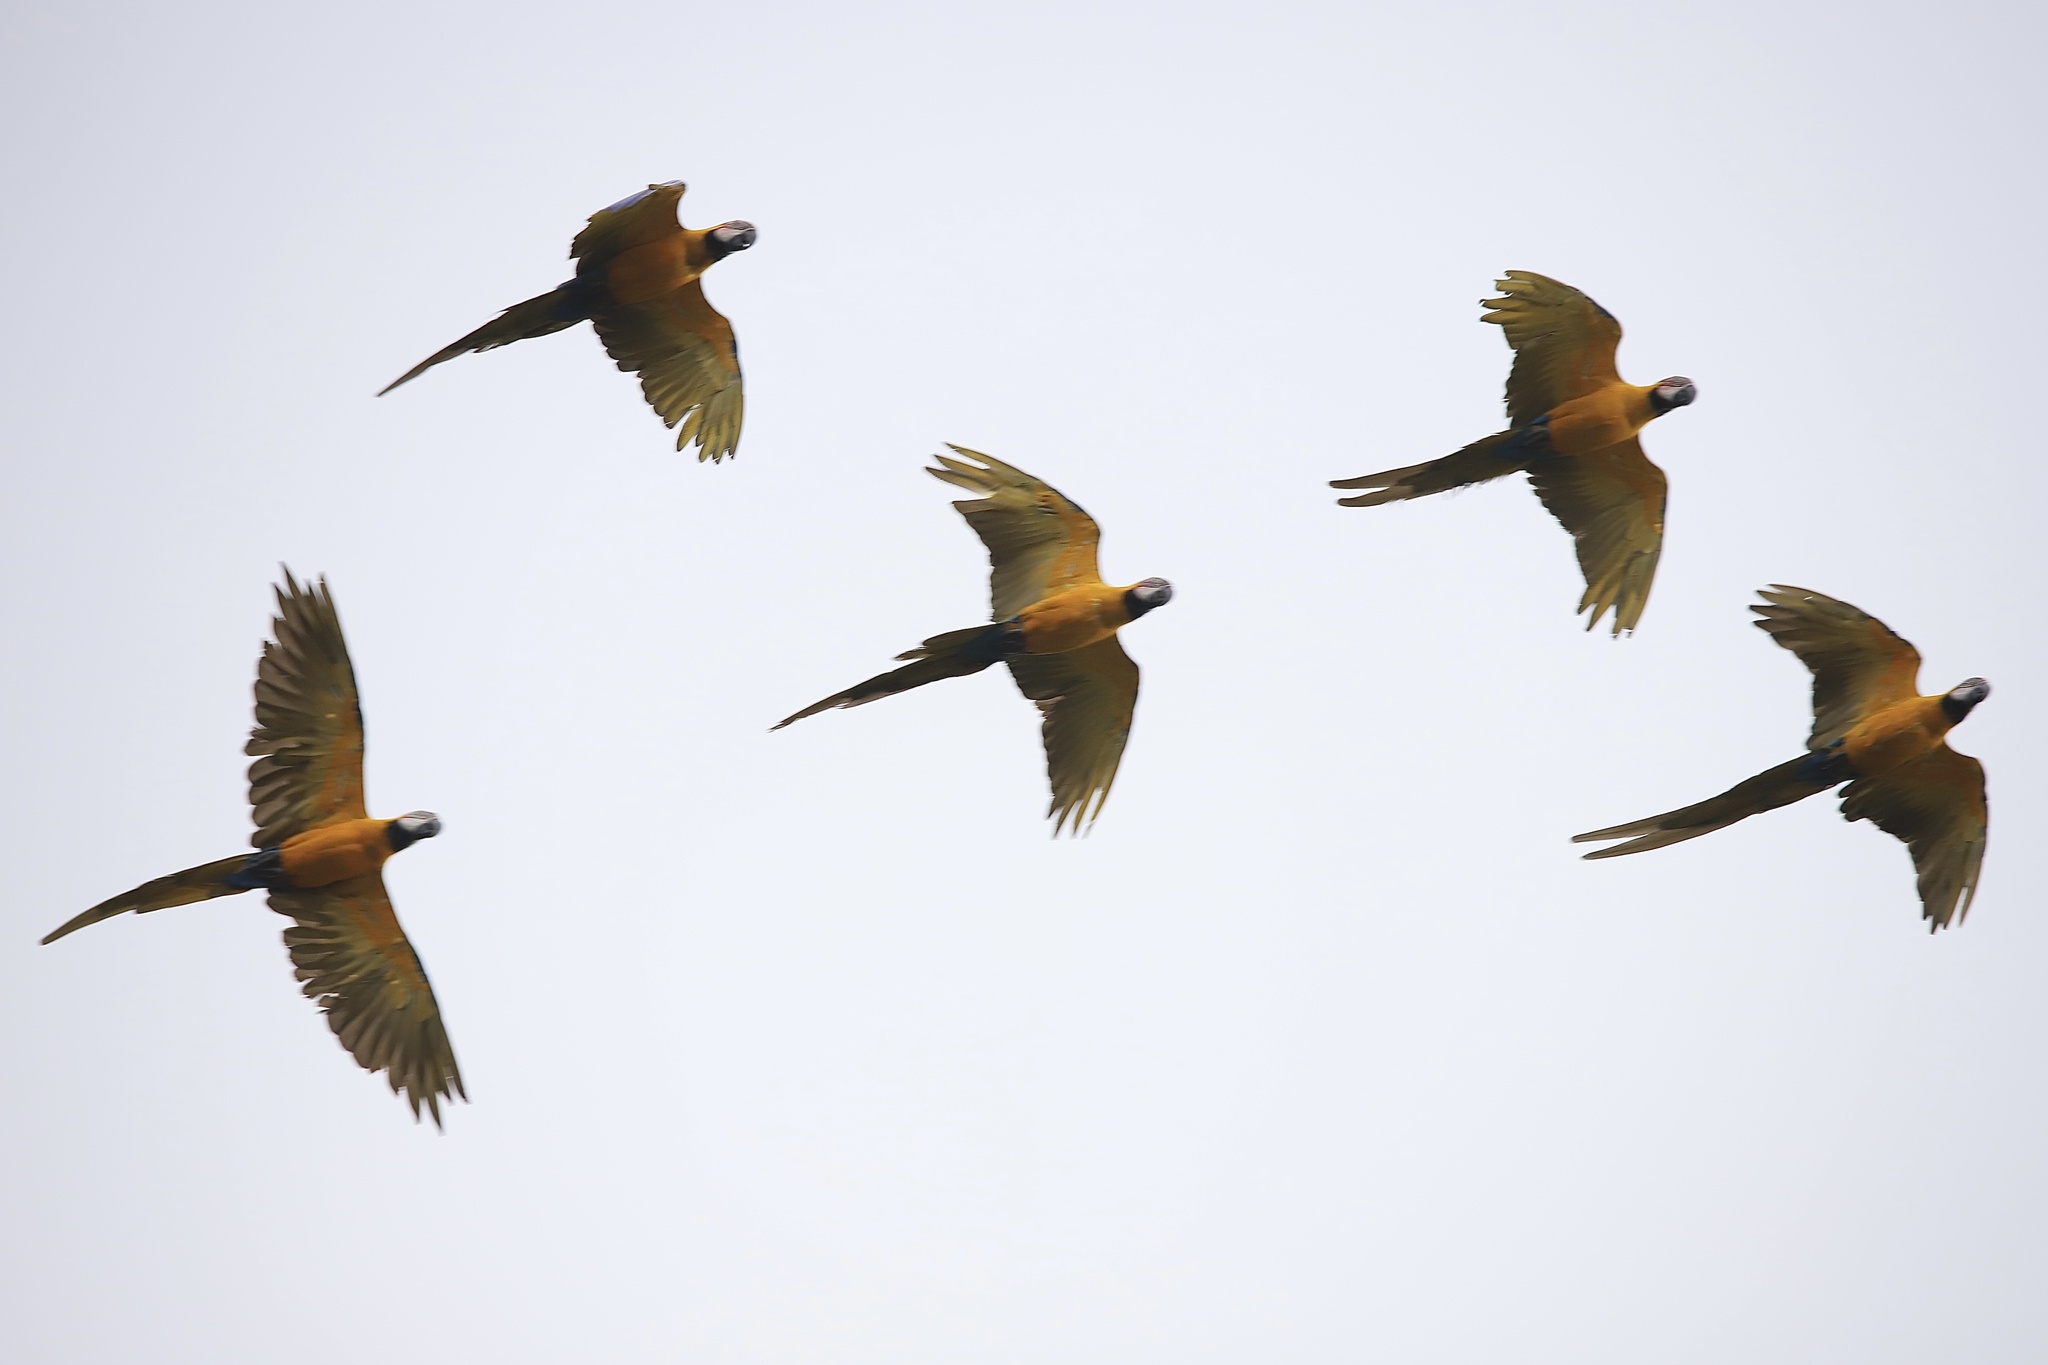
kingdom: Animalia
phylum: Chordata
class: Aves
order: Psittaciformes
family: Psittacidae
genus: Ara
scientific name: Ara ararauna
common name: Blue-and-yellow macaw
